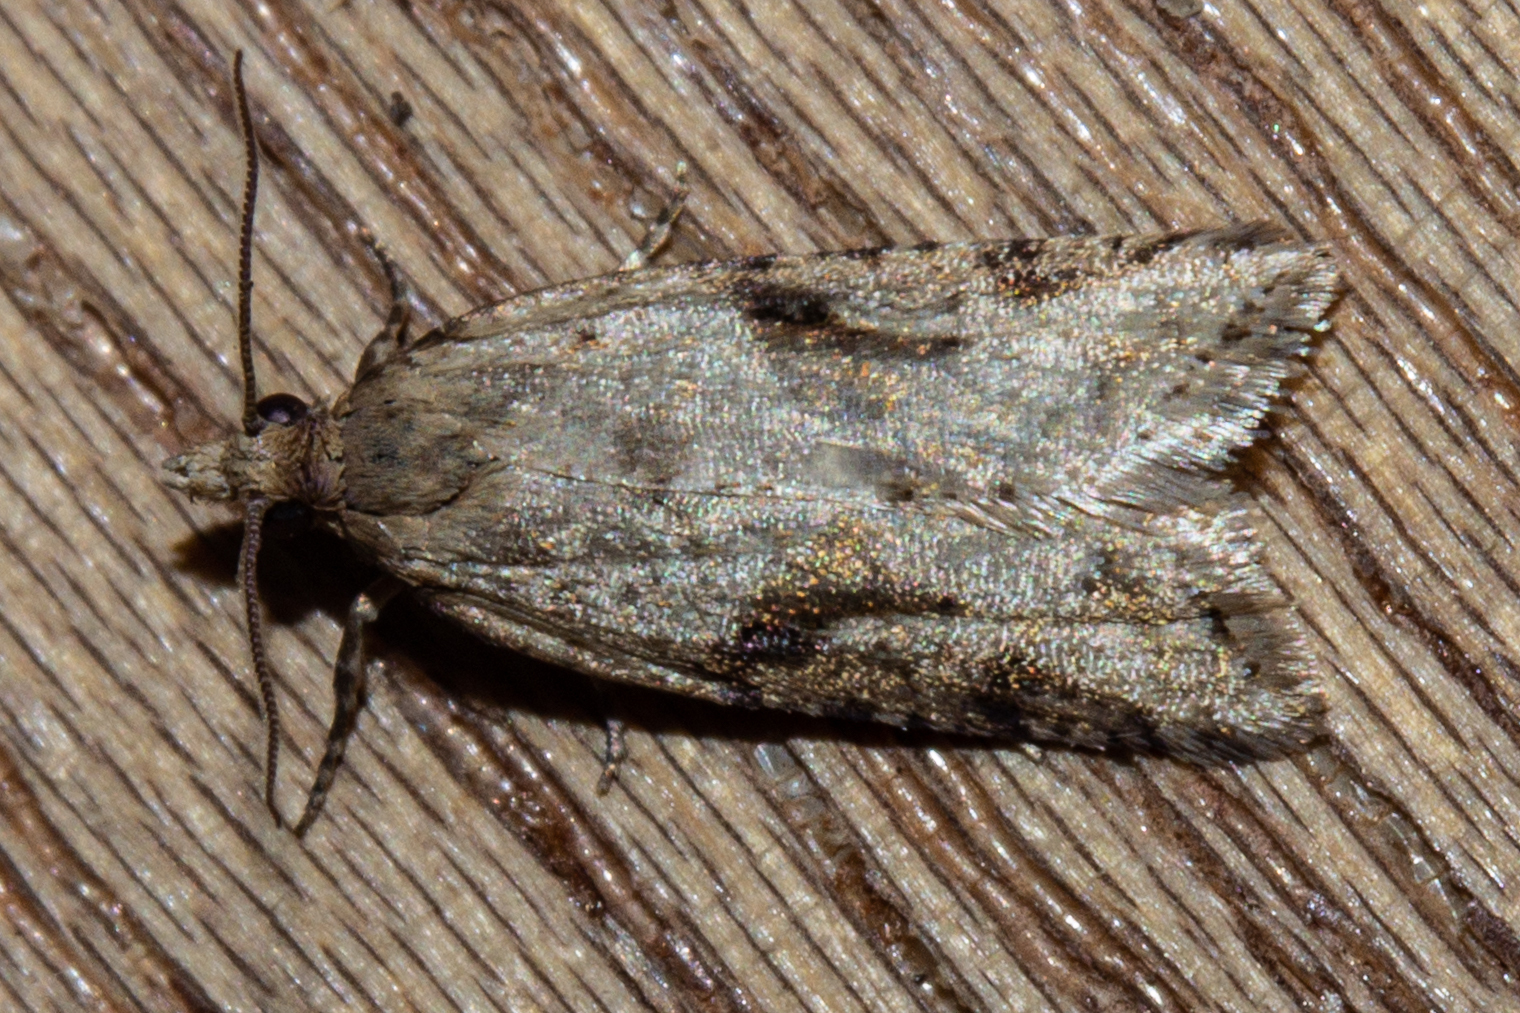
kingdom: Animalia
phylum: Arthropoda
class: Insecta
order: Lepidoptera
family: Tortricidae
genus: Capua
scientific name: Capua semiferana
